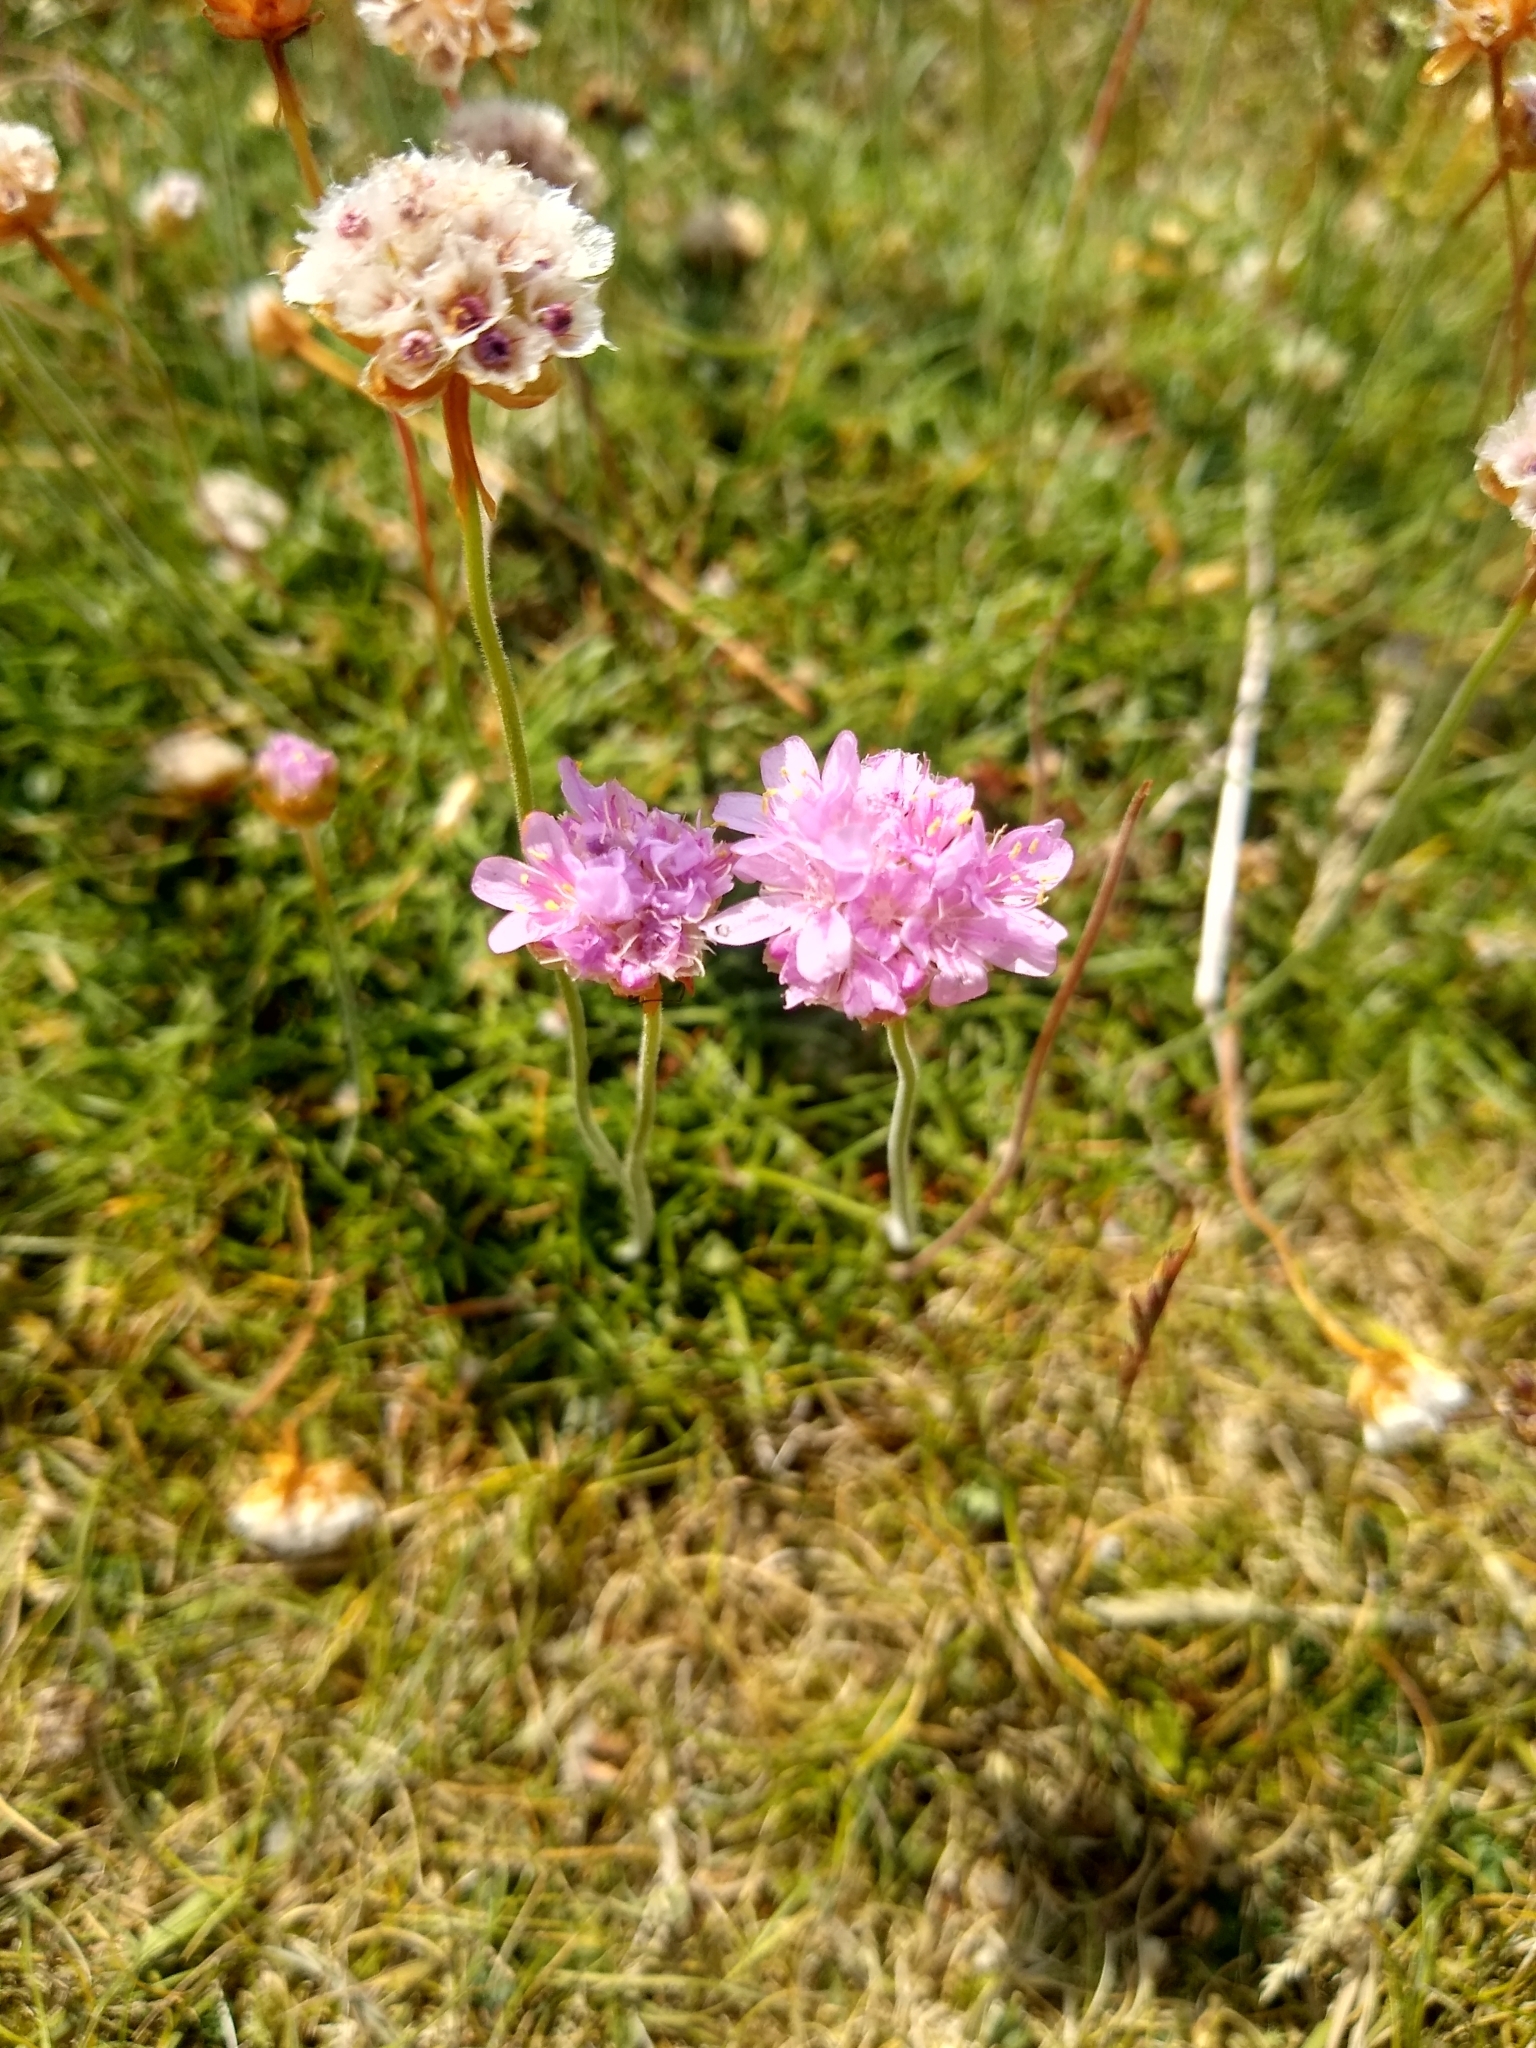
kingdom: Plantae
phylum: Tracheophyta
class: Magnoliopsida
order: Caryophyllales
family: Plumbaginaceae
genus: Armeria
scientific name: Armeria maritima
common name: Thrift
